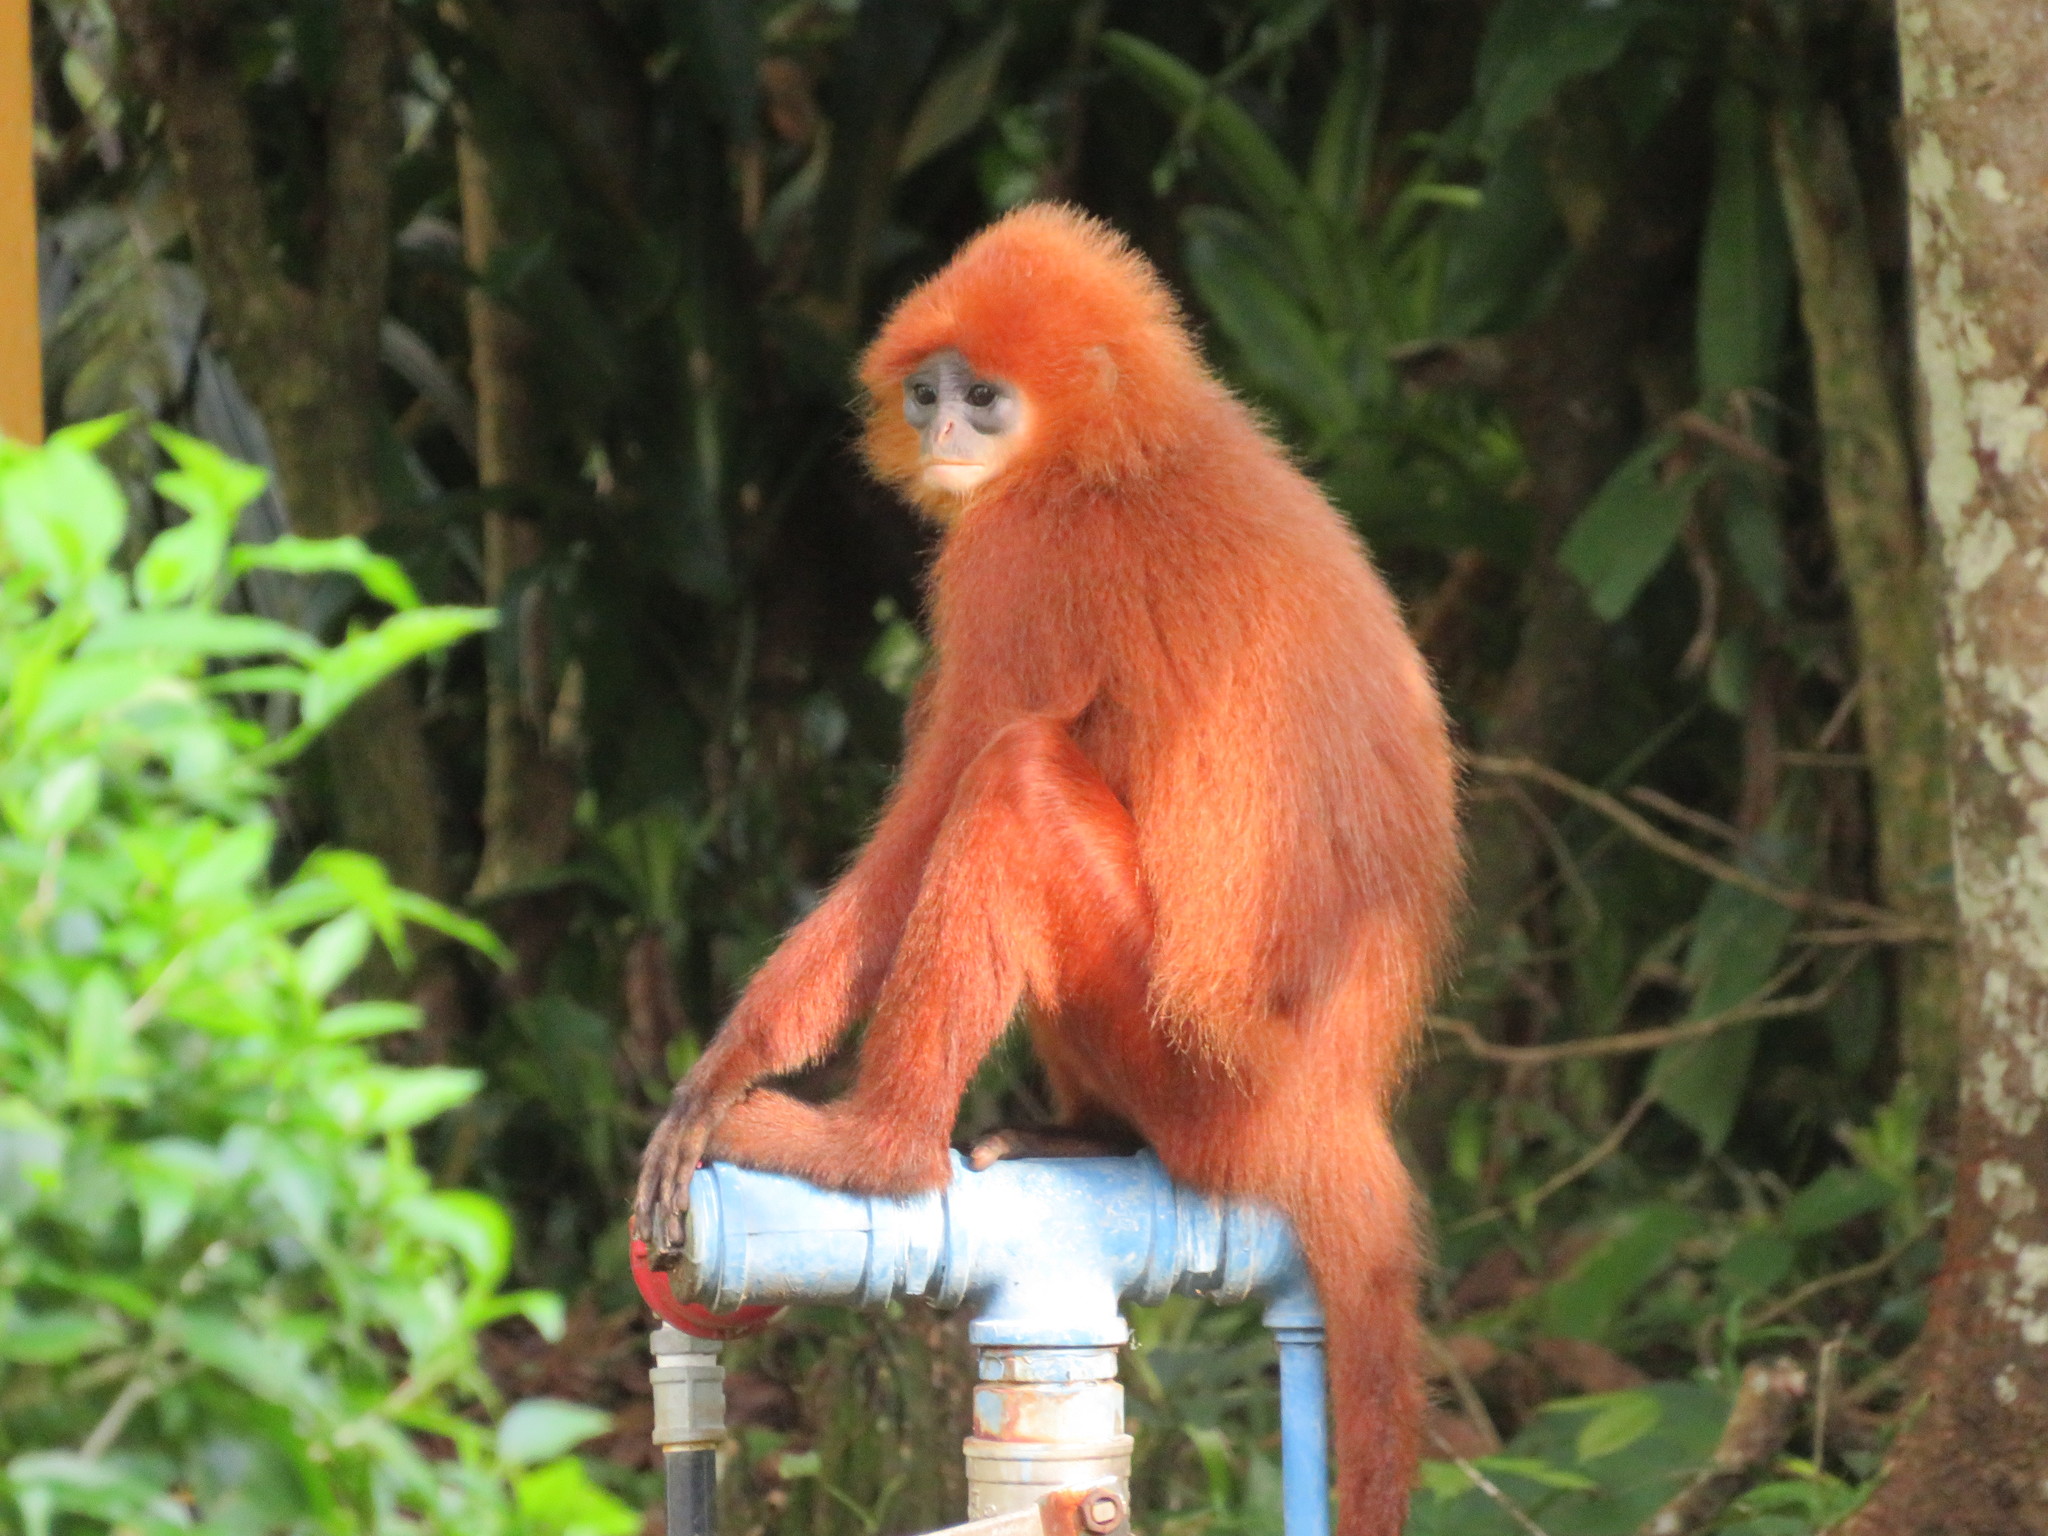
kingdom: Animalia
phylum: Chordata
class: Mammalia
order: Primates
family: Cercopithecidae
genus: Presbytis
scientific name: Presbytis rubicunda
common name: Maroon leaf monkey
